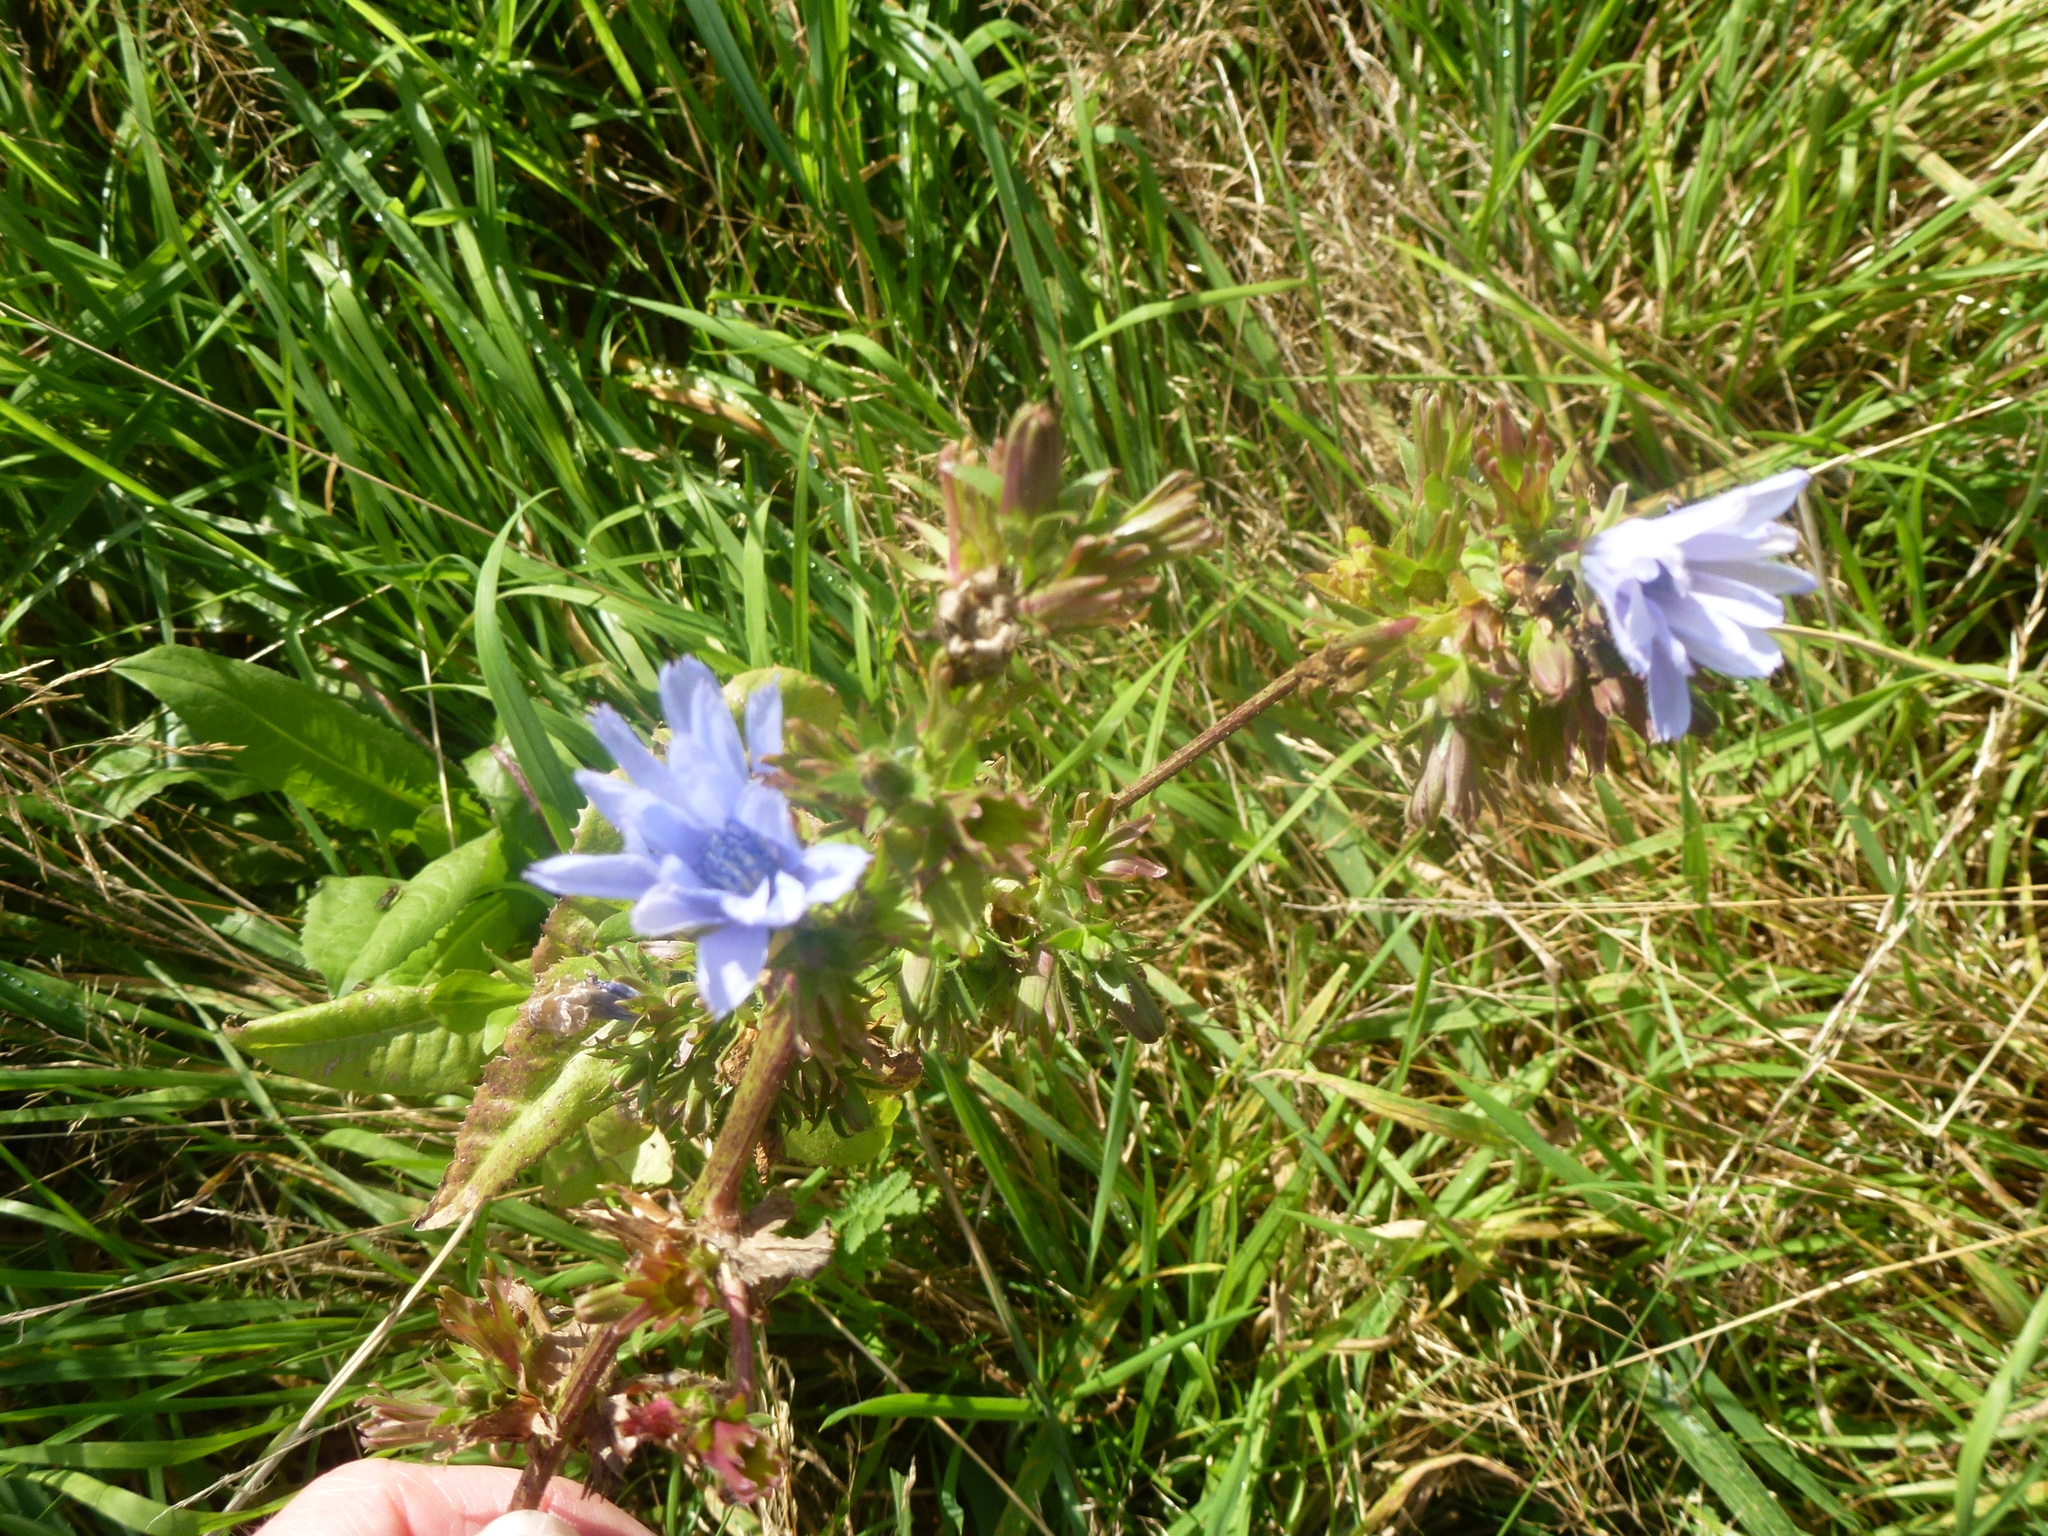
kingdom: Plantae
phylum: Tracheophyta
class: Magnoliopsida
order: Asterales
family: Asteraceae
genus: Cichorium
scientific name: Cichorium intybus
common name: Chicory
